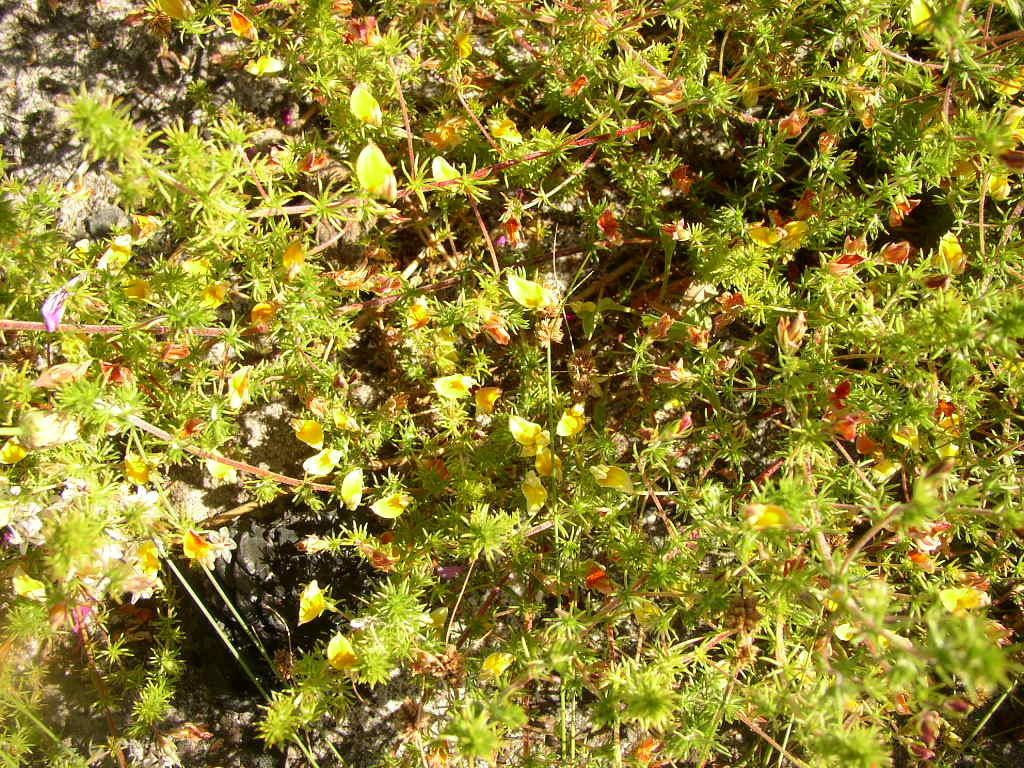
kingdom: Plantae
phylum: Tracheophyta
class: Magnoliopsida
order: Fabales
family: Fabaceae
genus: Aspalathus
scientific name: Aspalathus retroflexa
